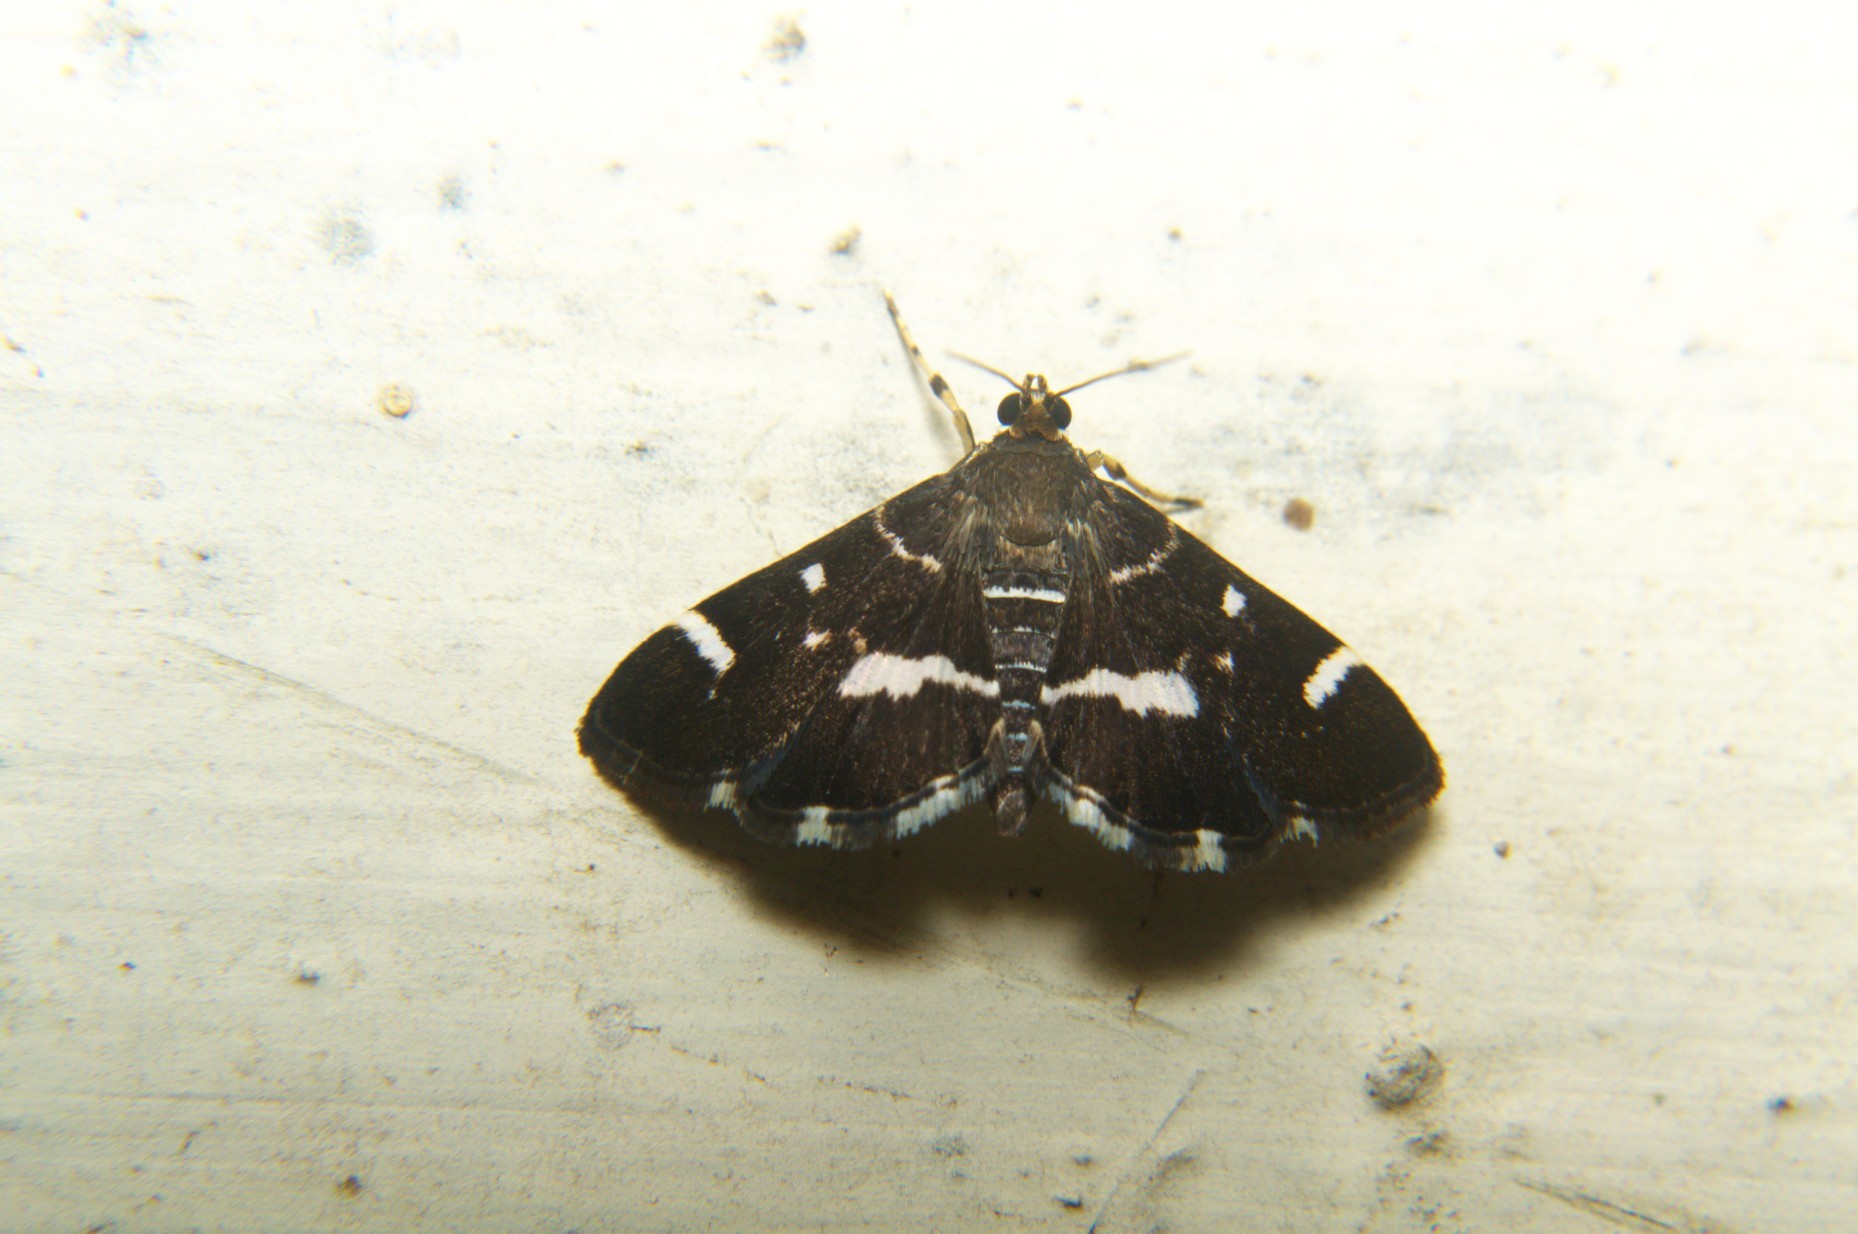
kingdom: Animalia
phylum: Arthropoda
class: Insecta
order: Lepidoptera
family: Crambidae
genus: Hymenia
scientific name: Hymenia perspectalis
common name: Spotted beet webworm
